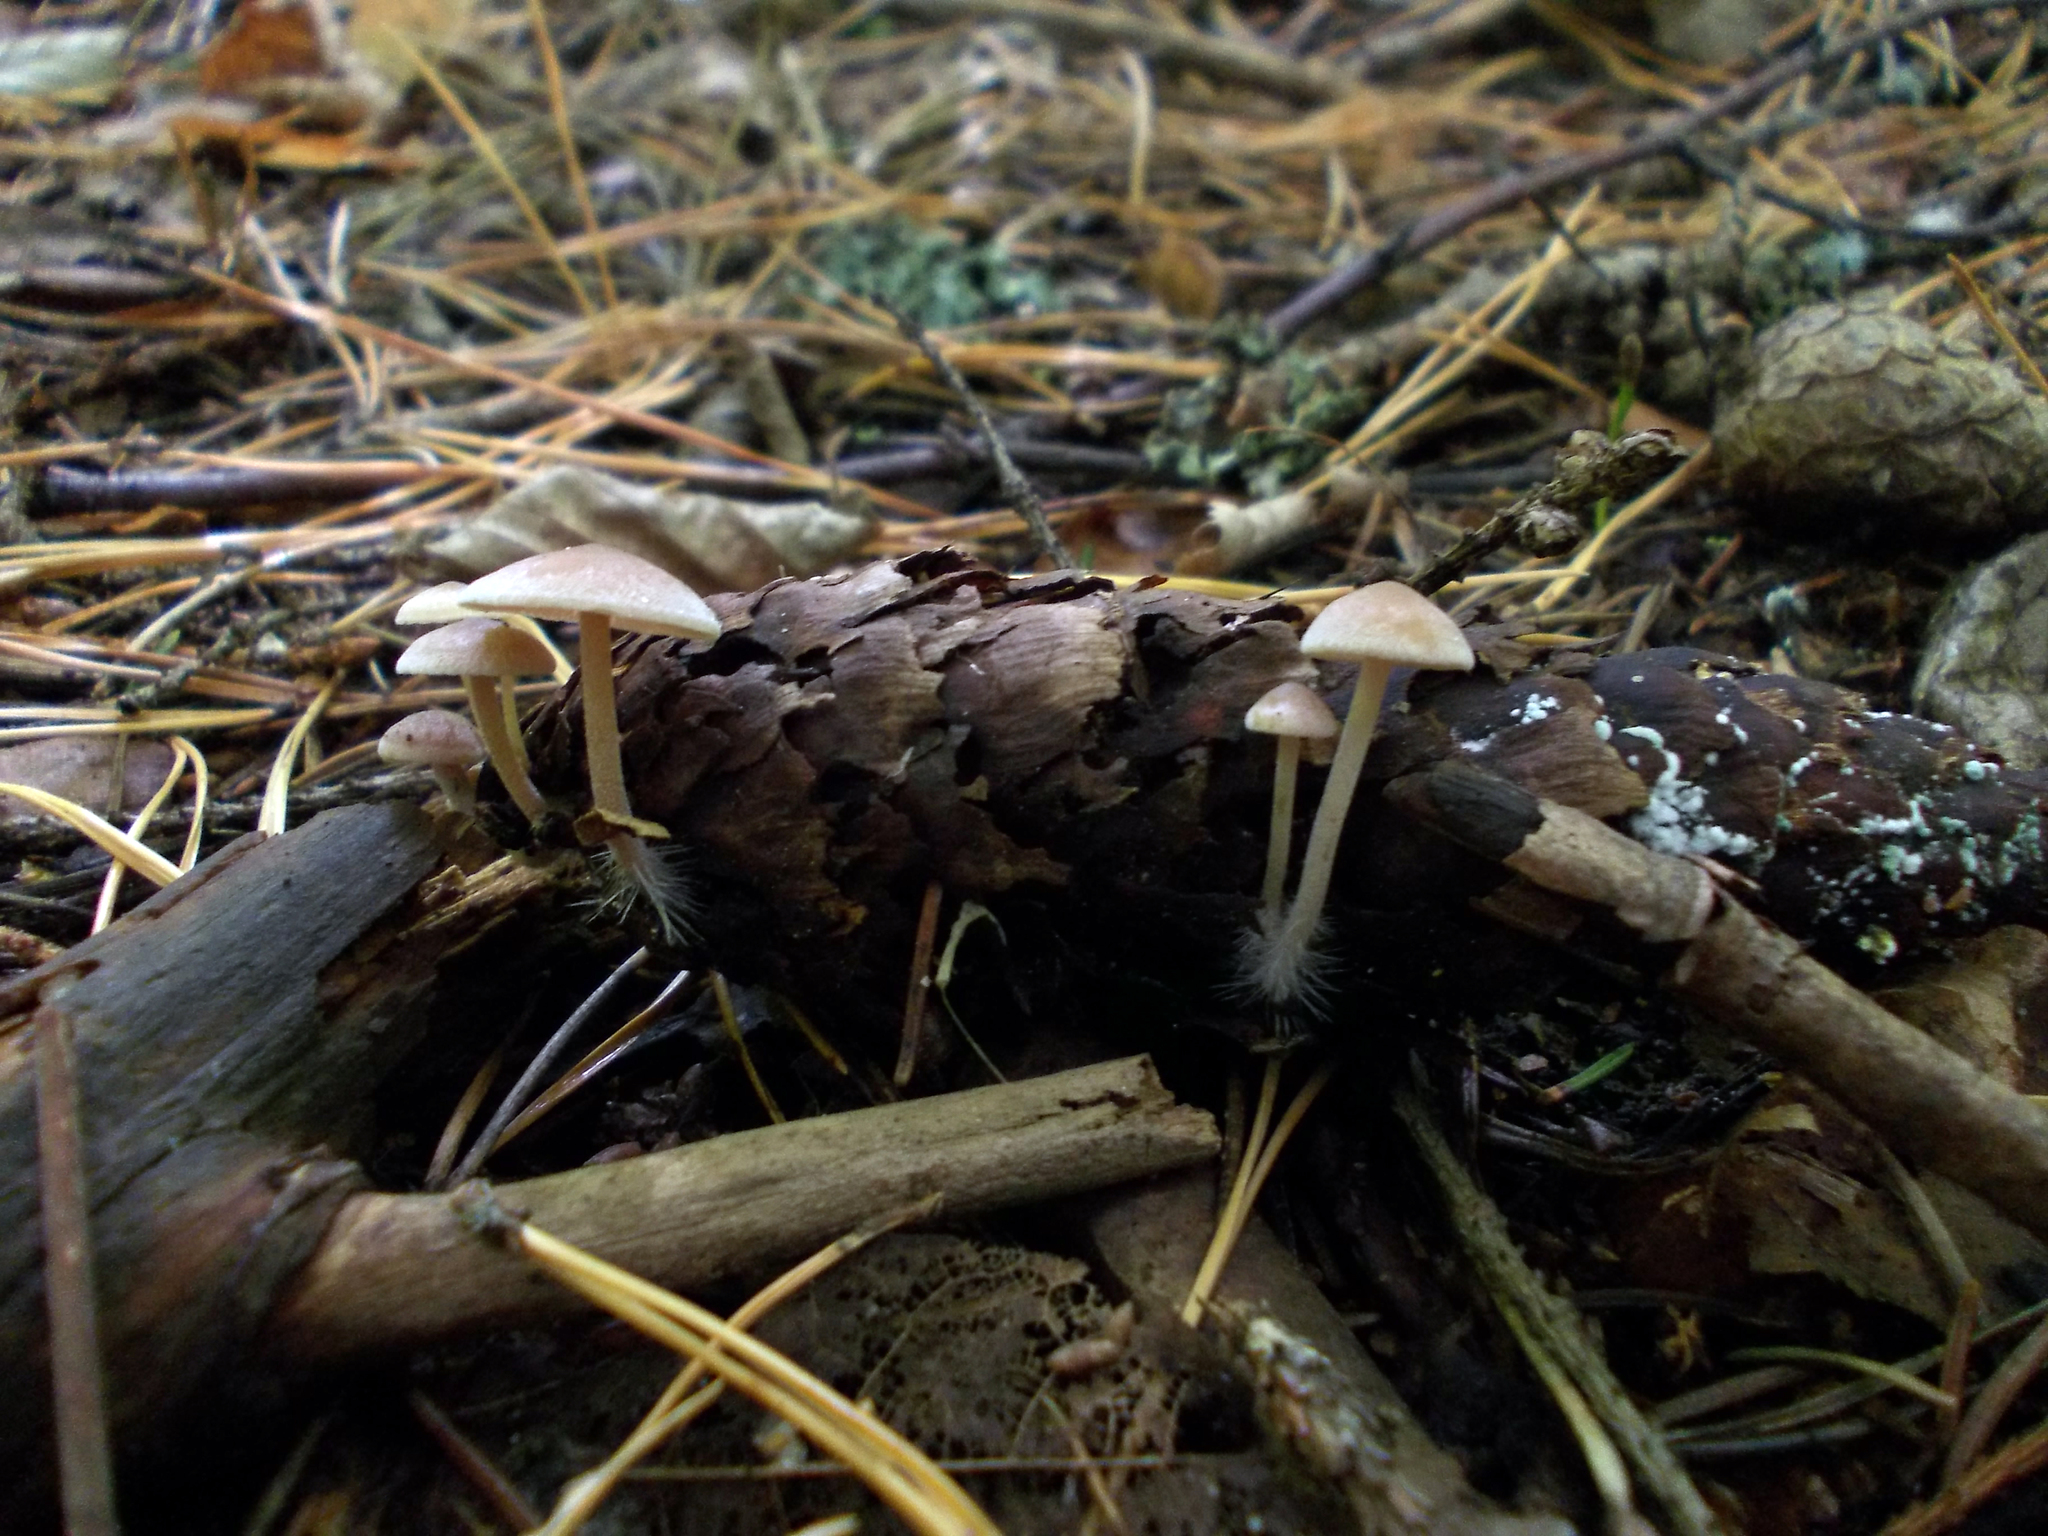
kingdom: Fungi
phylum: Basidiomycota
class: Agaricomycetes
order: Agaricales
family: Marasmiaceae
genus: Baeospora
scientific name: Baeospora myosura
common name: Conifercone cap
